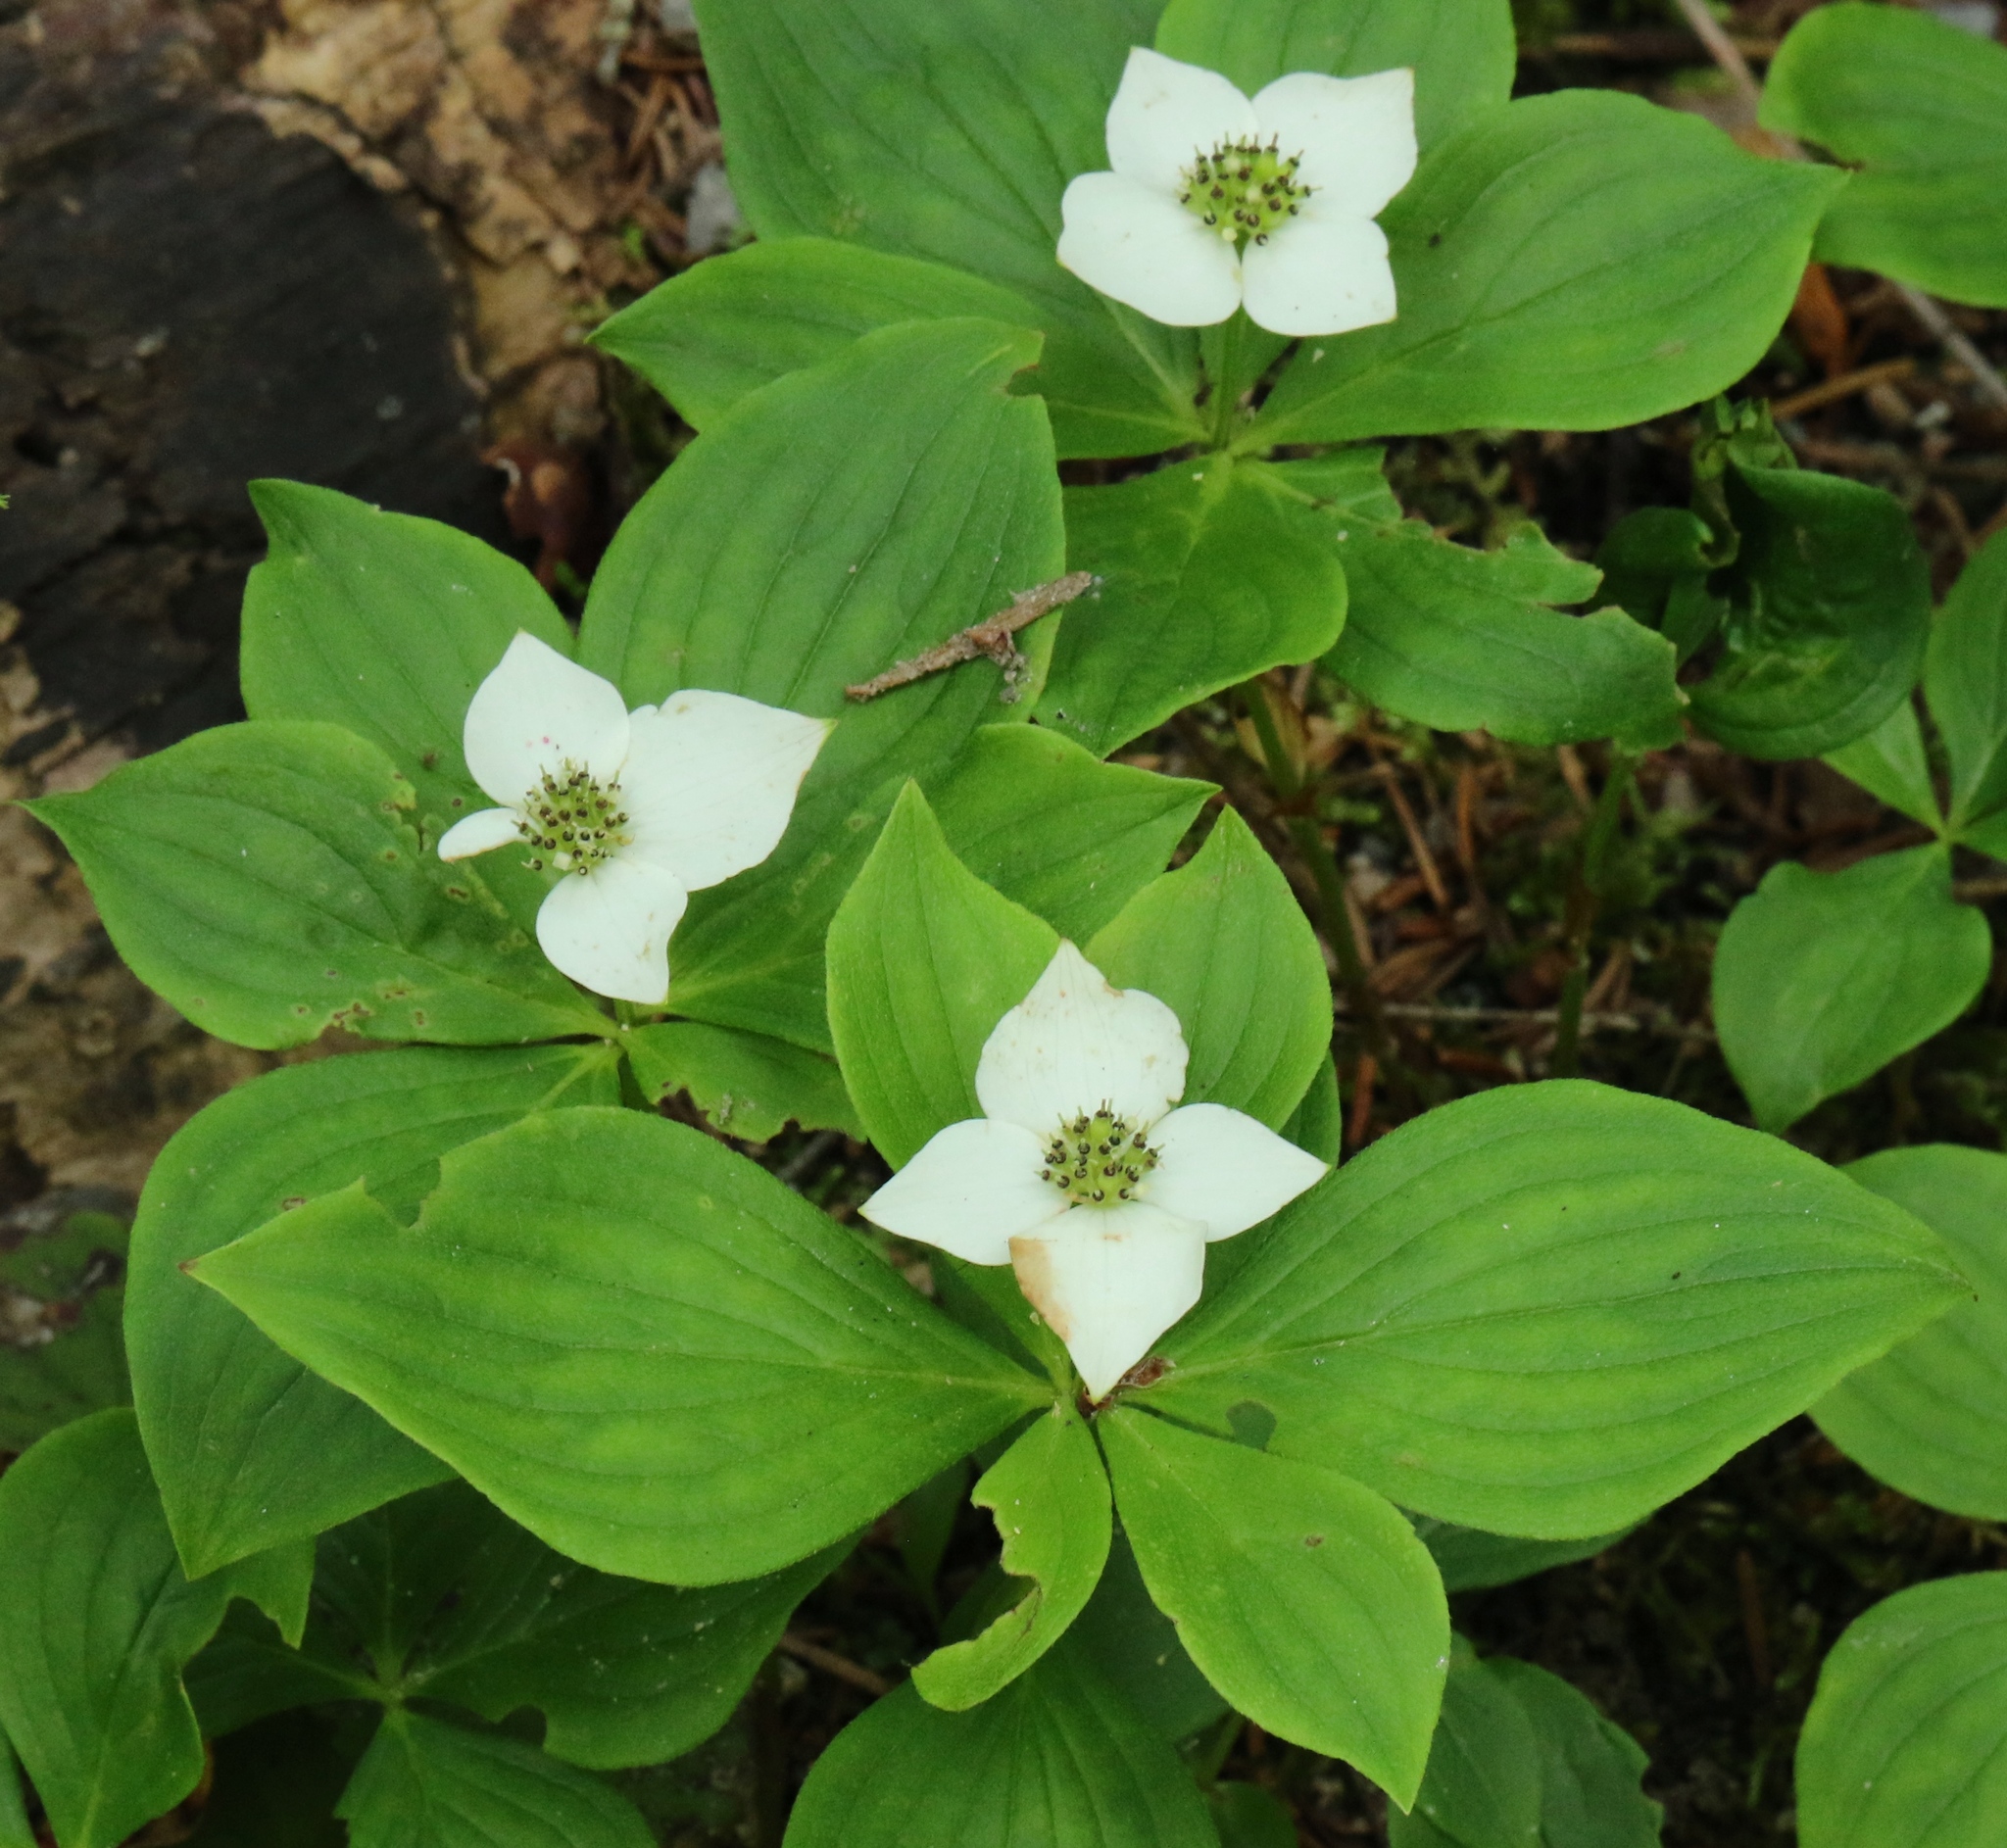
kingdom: Plantae
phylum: Tracheophyta
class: Magnoliopsida
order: Cornales
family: Cornaceae
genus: Cornus
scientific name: Cornus canadensis
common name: Creeping dogwood
